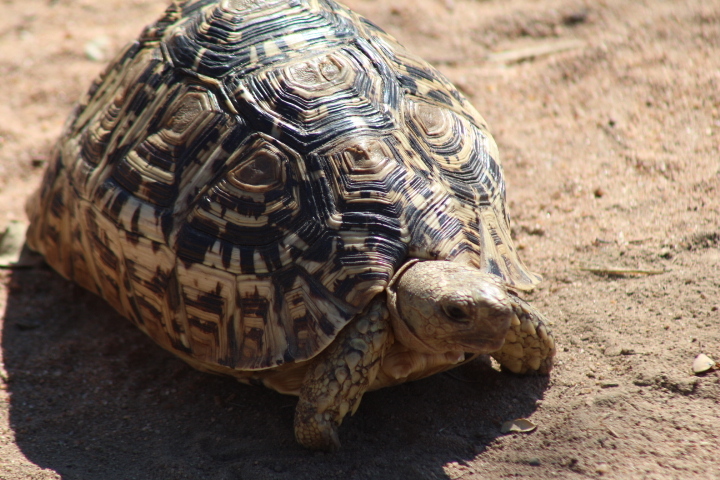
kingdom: Animalia
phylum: Chordata
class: Testudines
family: Testudinidae
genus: Stigmochelys
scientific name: Stigmochelys pardalis
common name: Leopard tortoise
